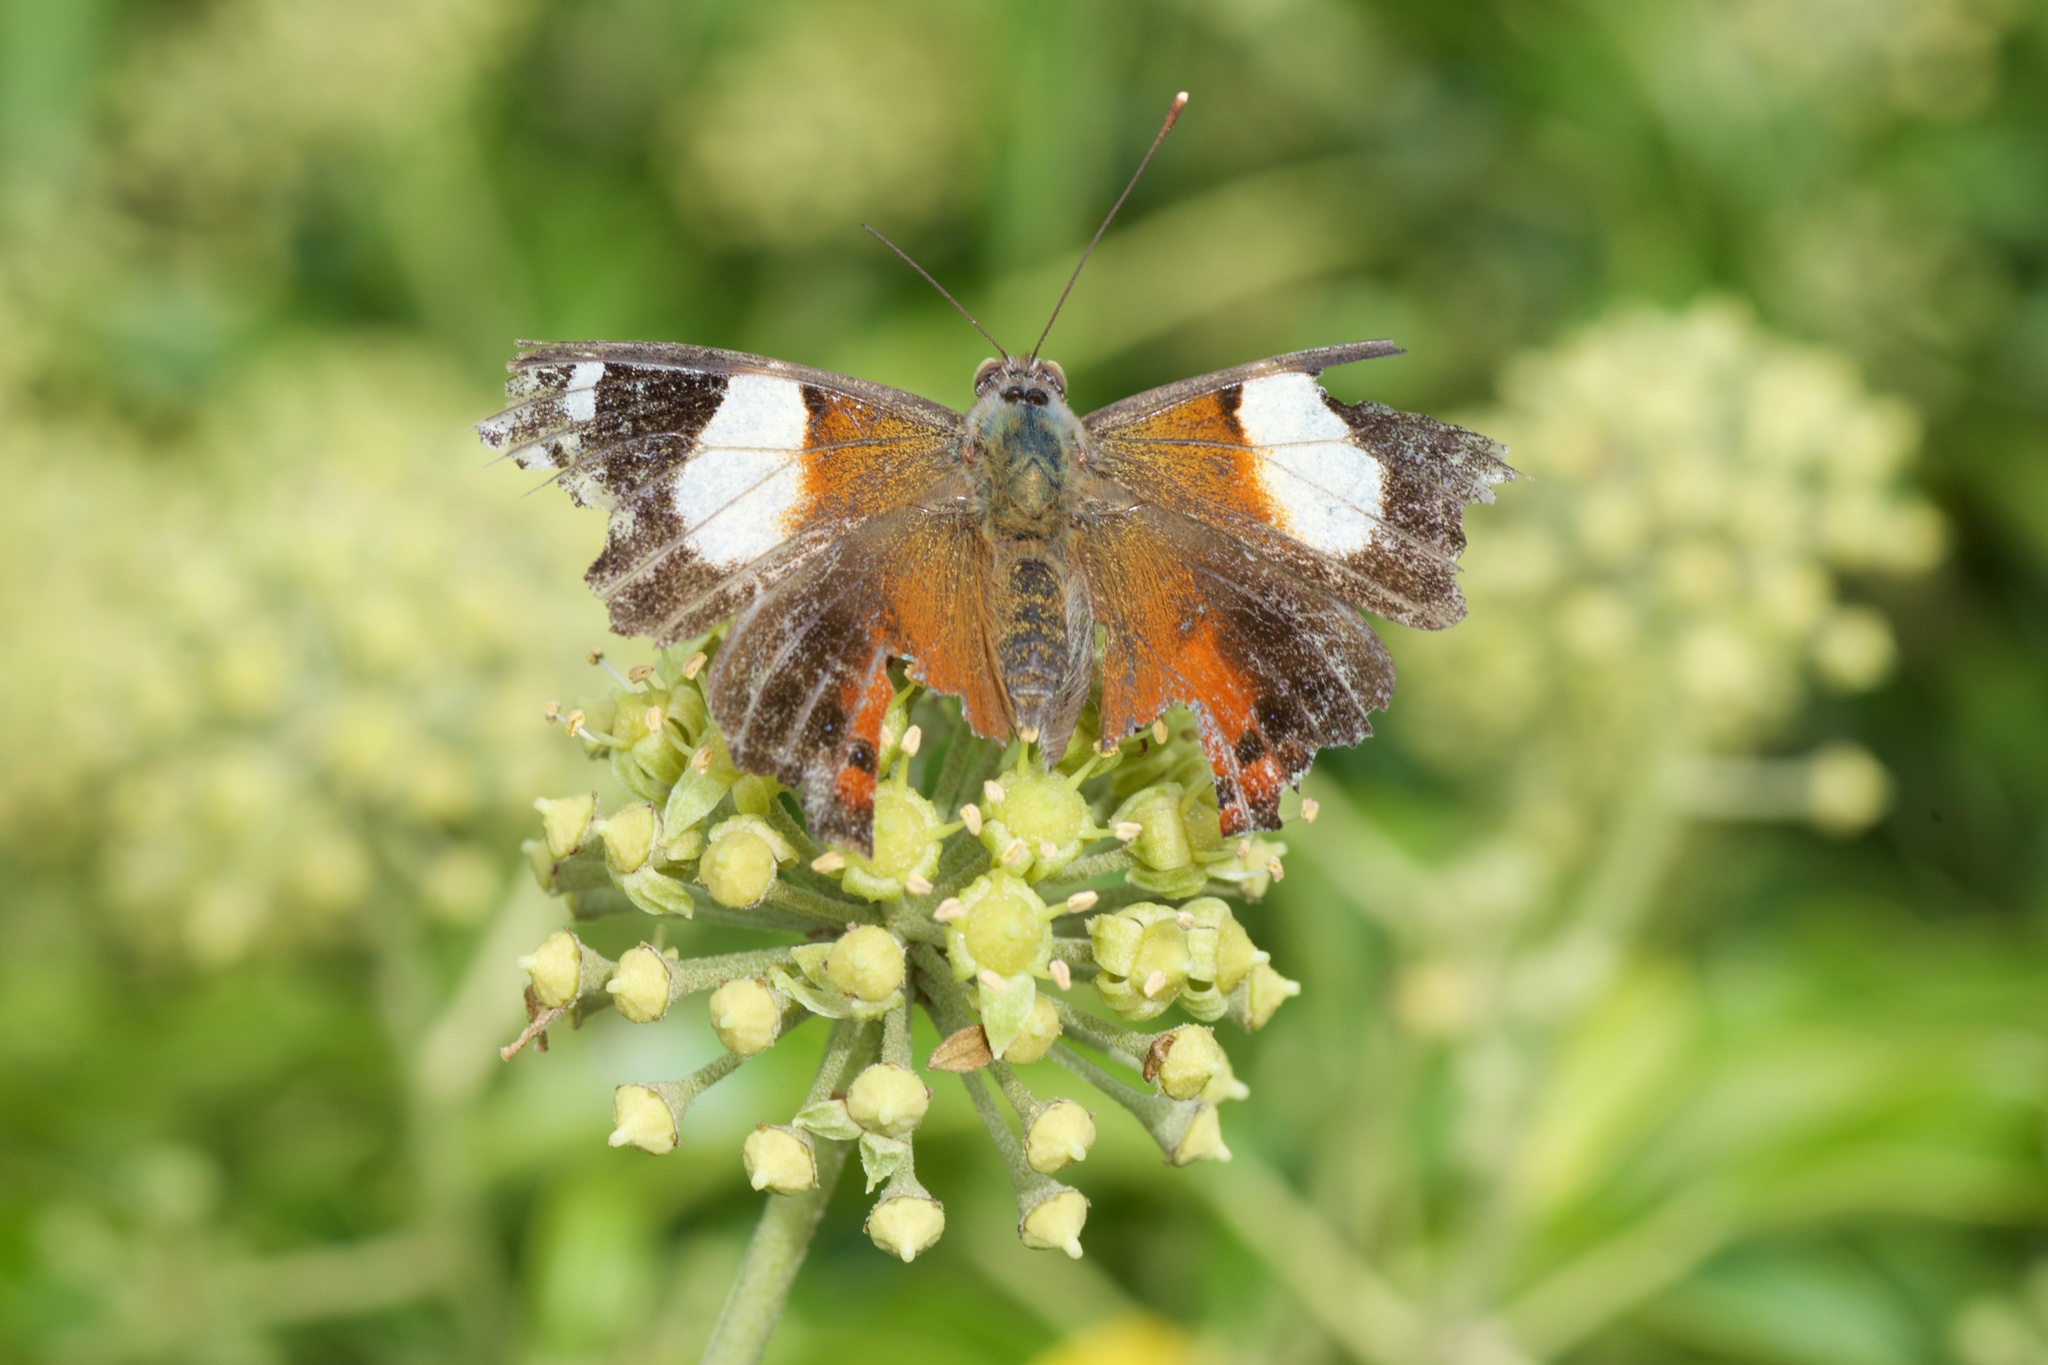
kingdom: Animalia
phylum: Arthropoda
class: Insecta
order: Lepidoptera
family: Nymphalidae
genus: Vanessa
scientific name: Vanessa itea
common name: Yellow admiral
